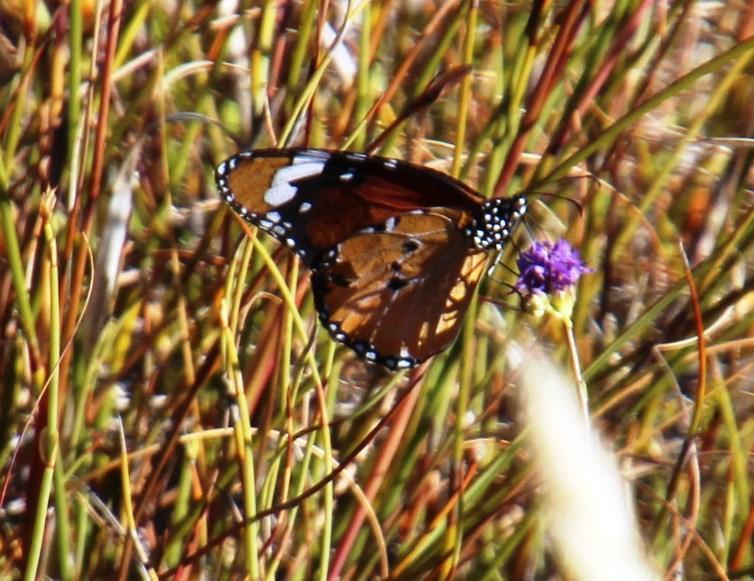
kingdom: Animalia
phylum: Arthropoda
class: Insecta
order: Lepidoptera
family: Nymphalidae
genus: Danaus
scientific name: Danaus chrysippus
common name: Plain tiger
